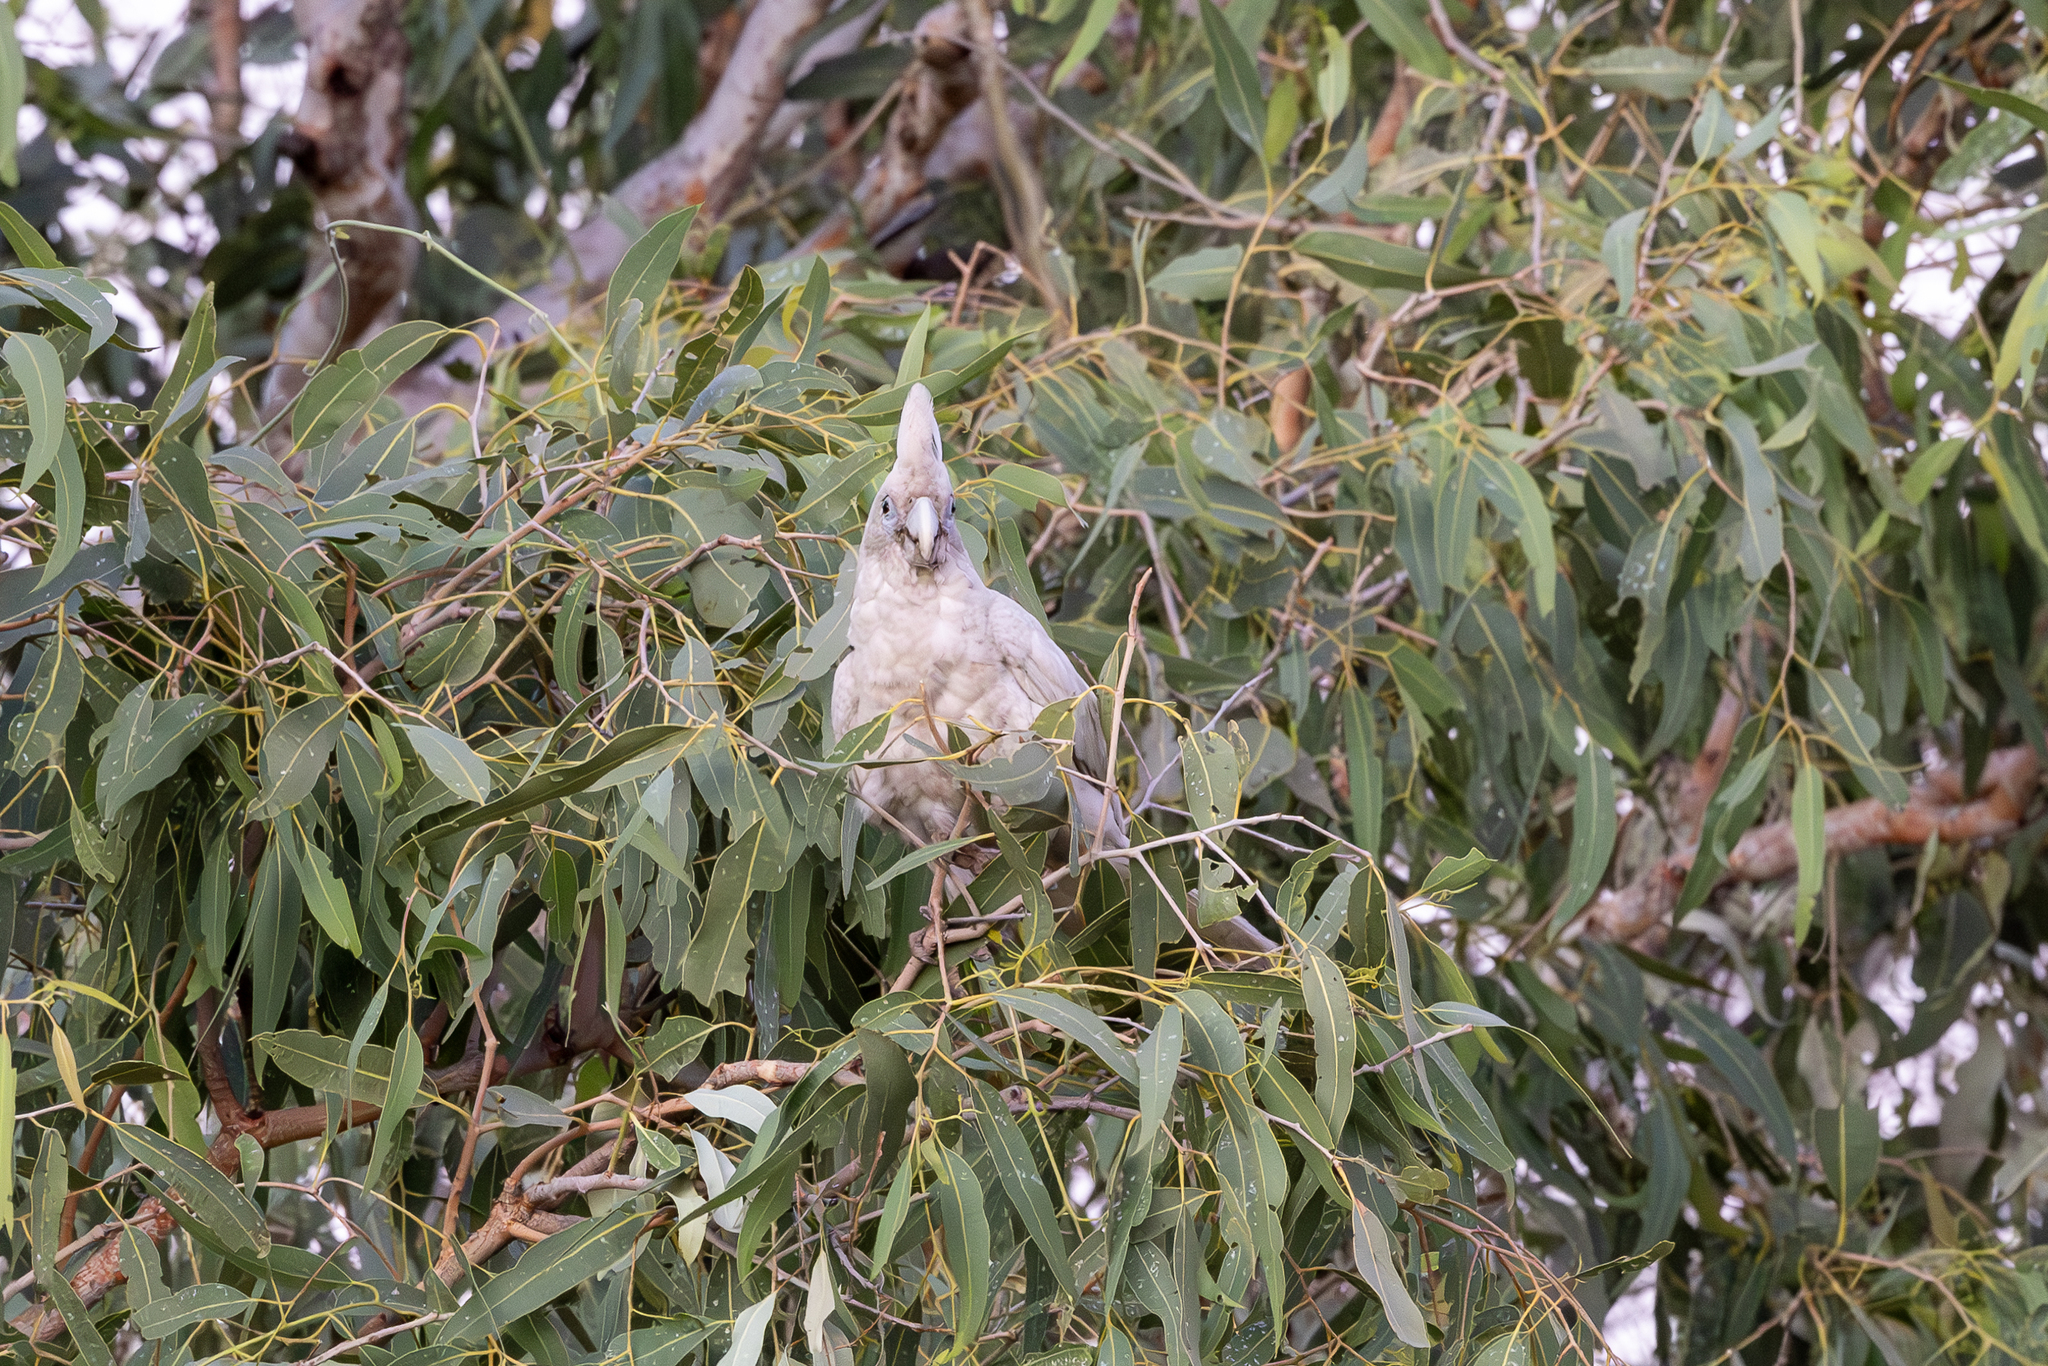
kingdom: Animalia
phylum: Chordata
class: Aves
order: Psittaciformes
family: Psittacidae
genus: Cacatua
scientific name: Cacatua sanguinea
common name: Little corella
